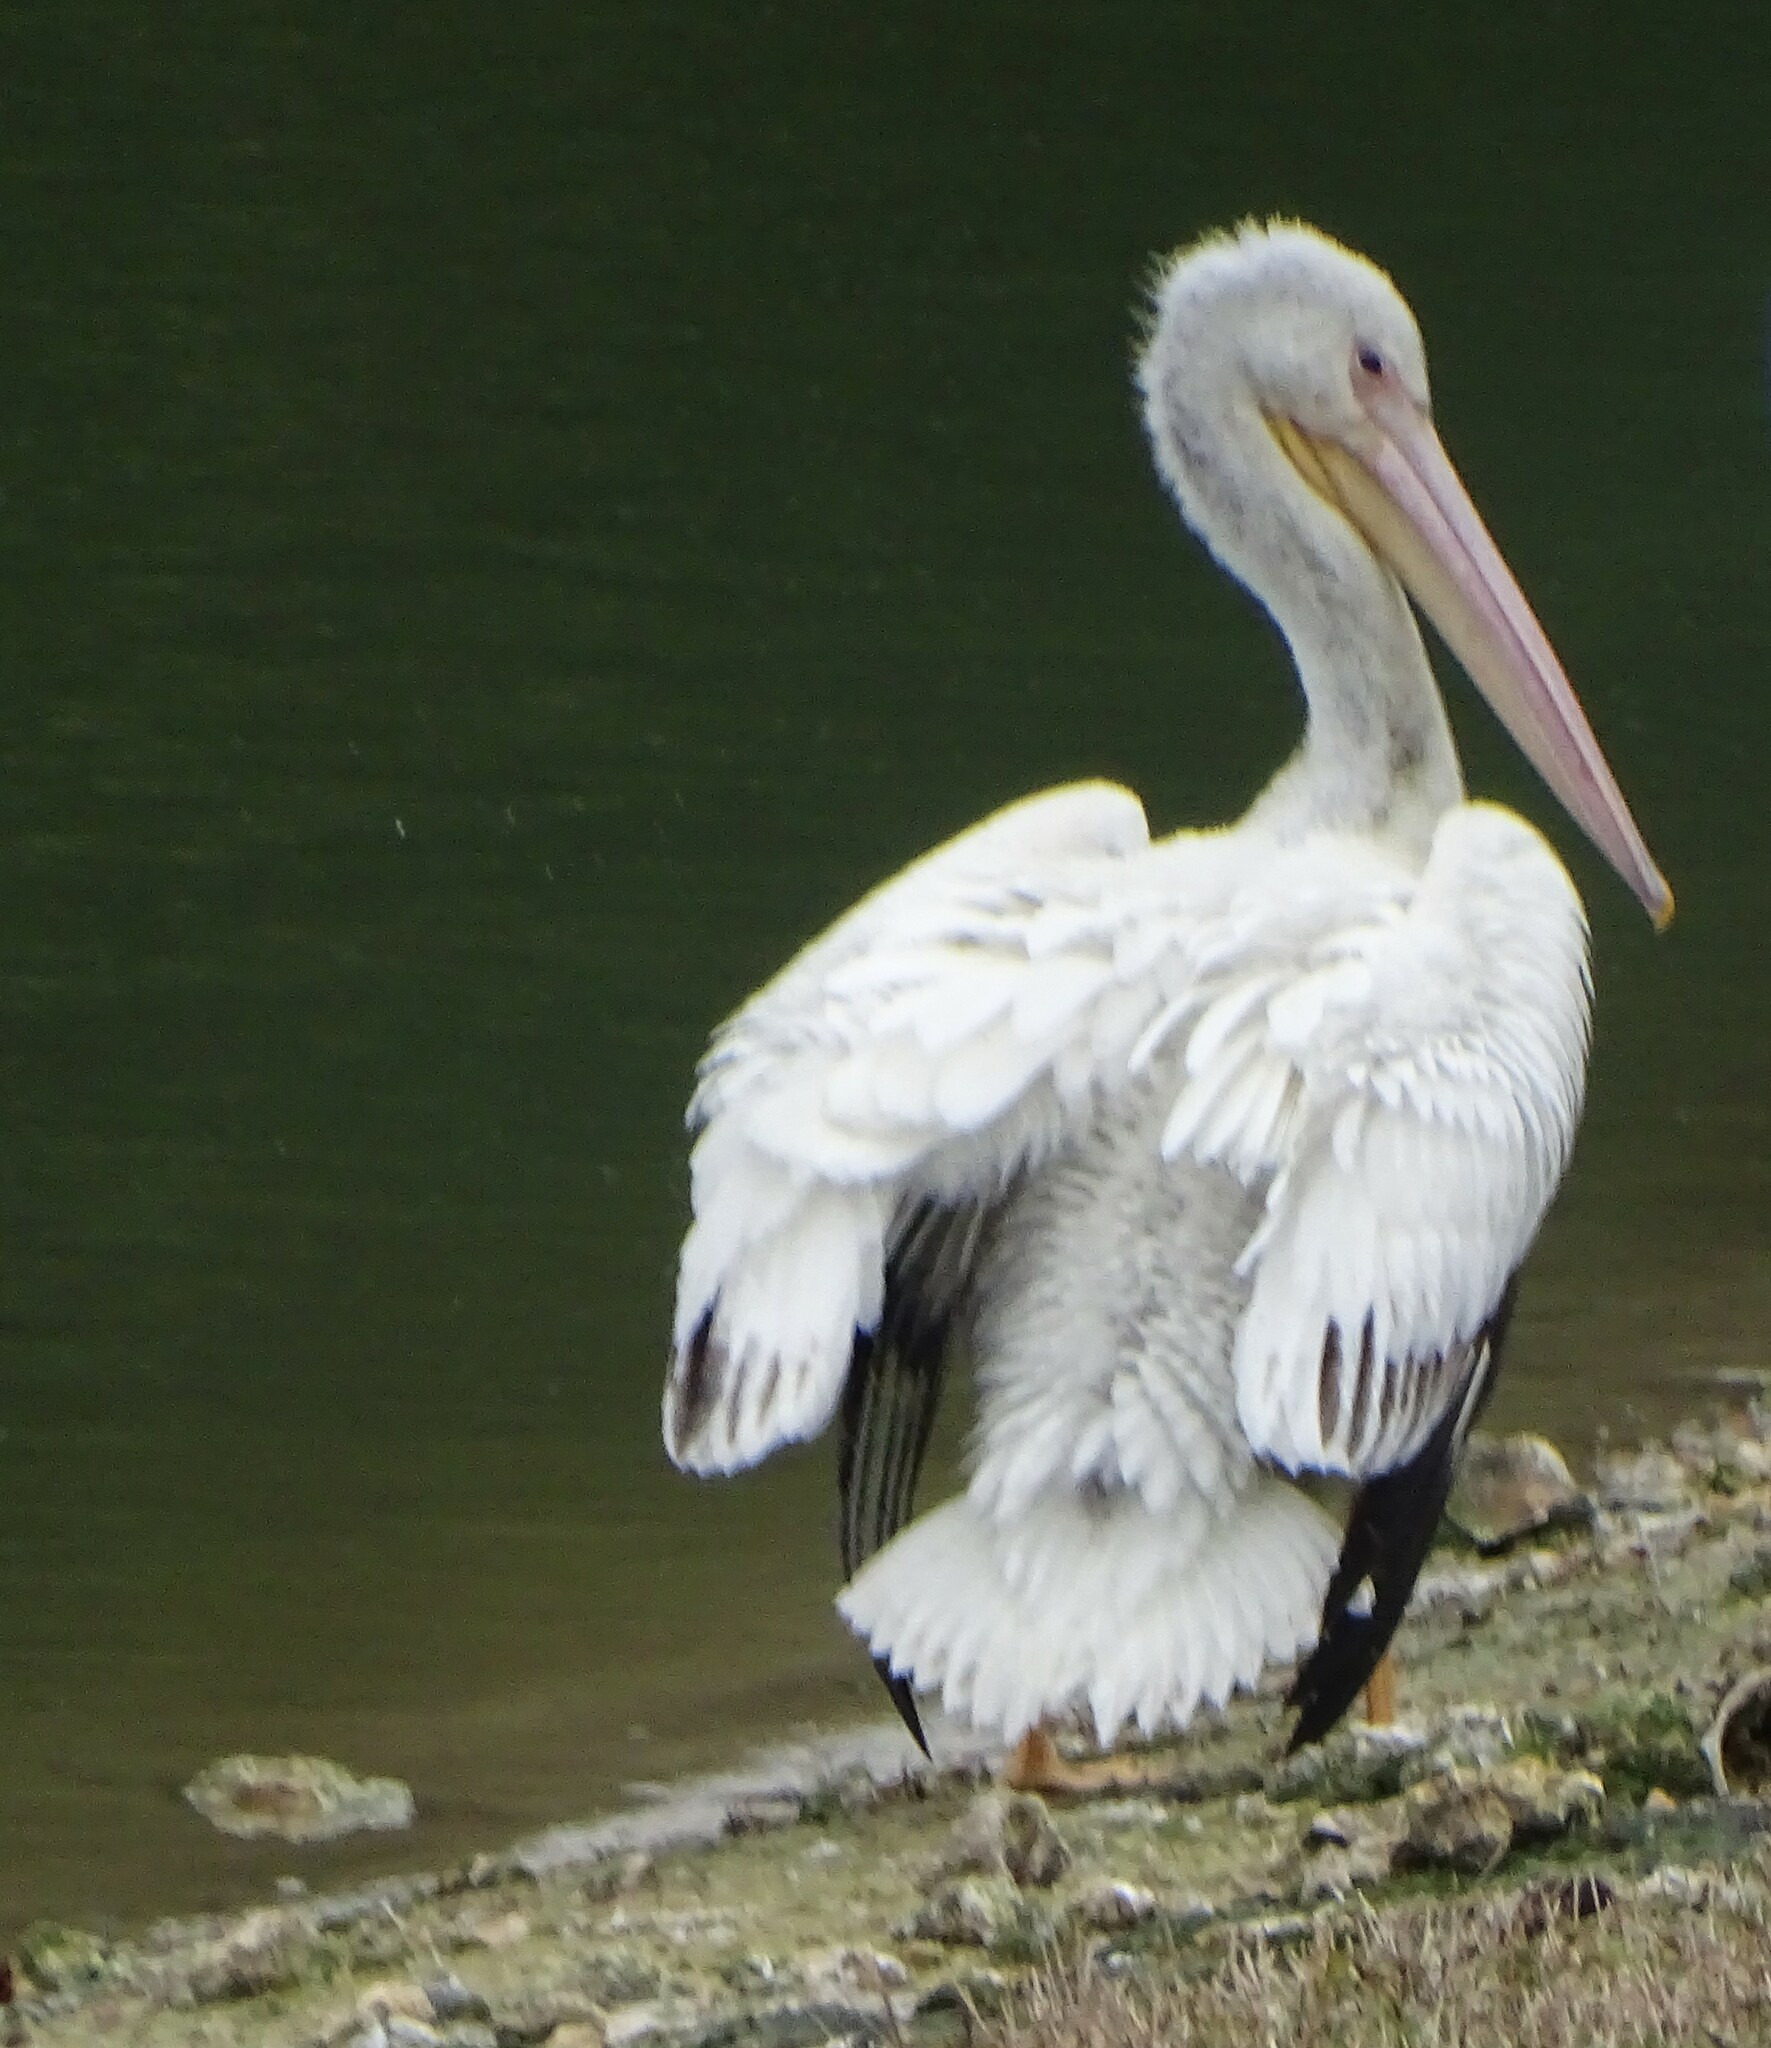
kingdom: Animalia
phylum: Chordata
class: Aves
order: Pelecaniformes
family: Pelecanidae
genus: Pelecanus
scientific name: Pelecanus erythrorhynchos
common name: American white pelican
